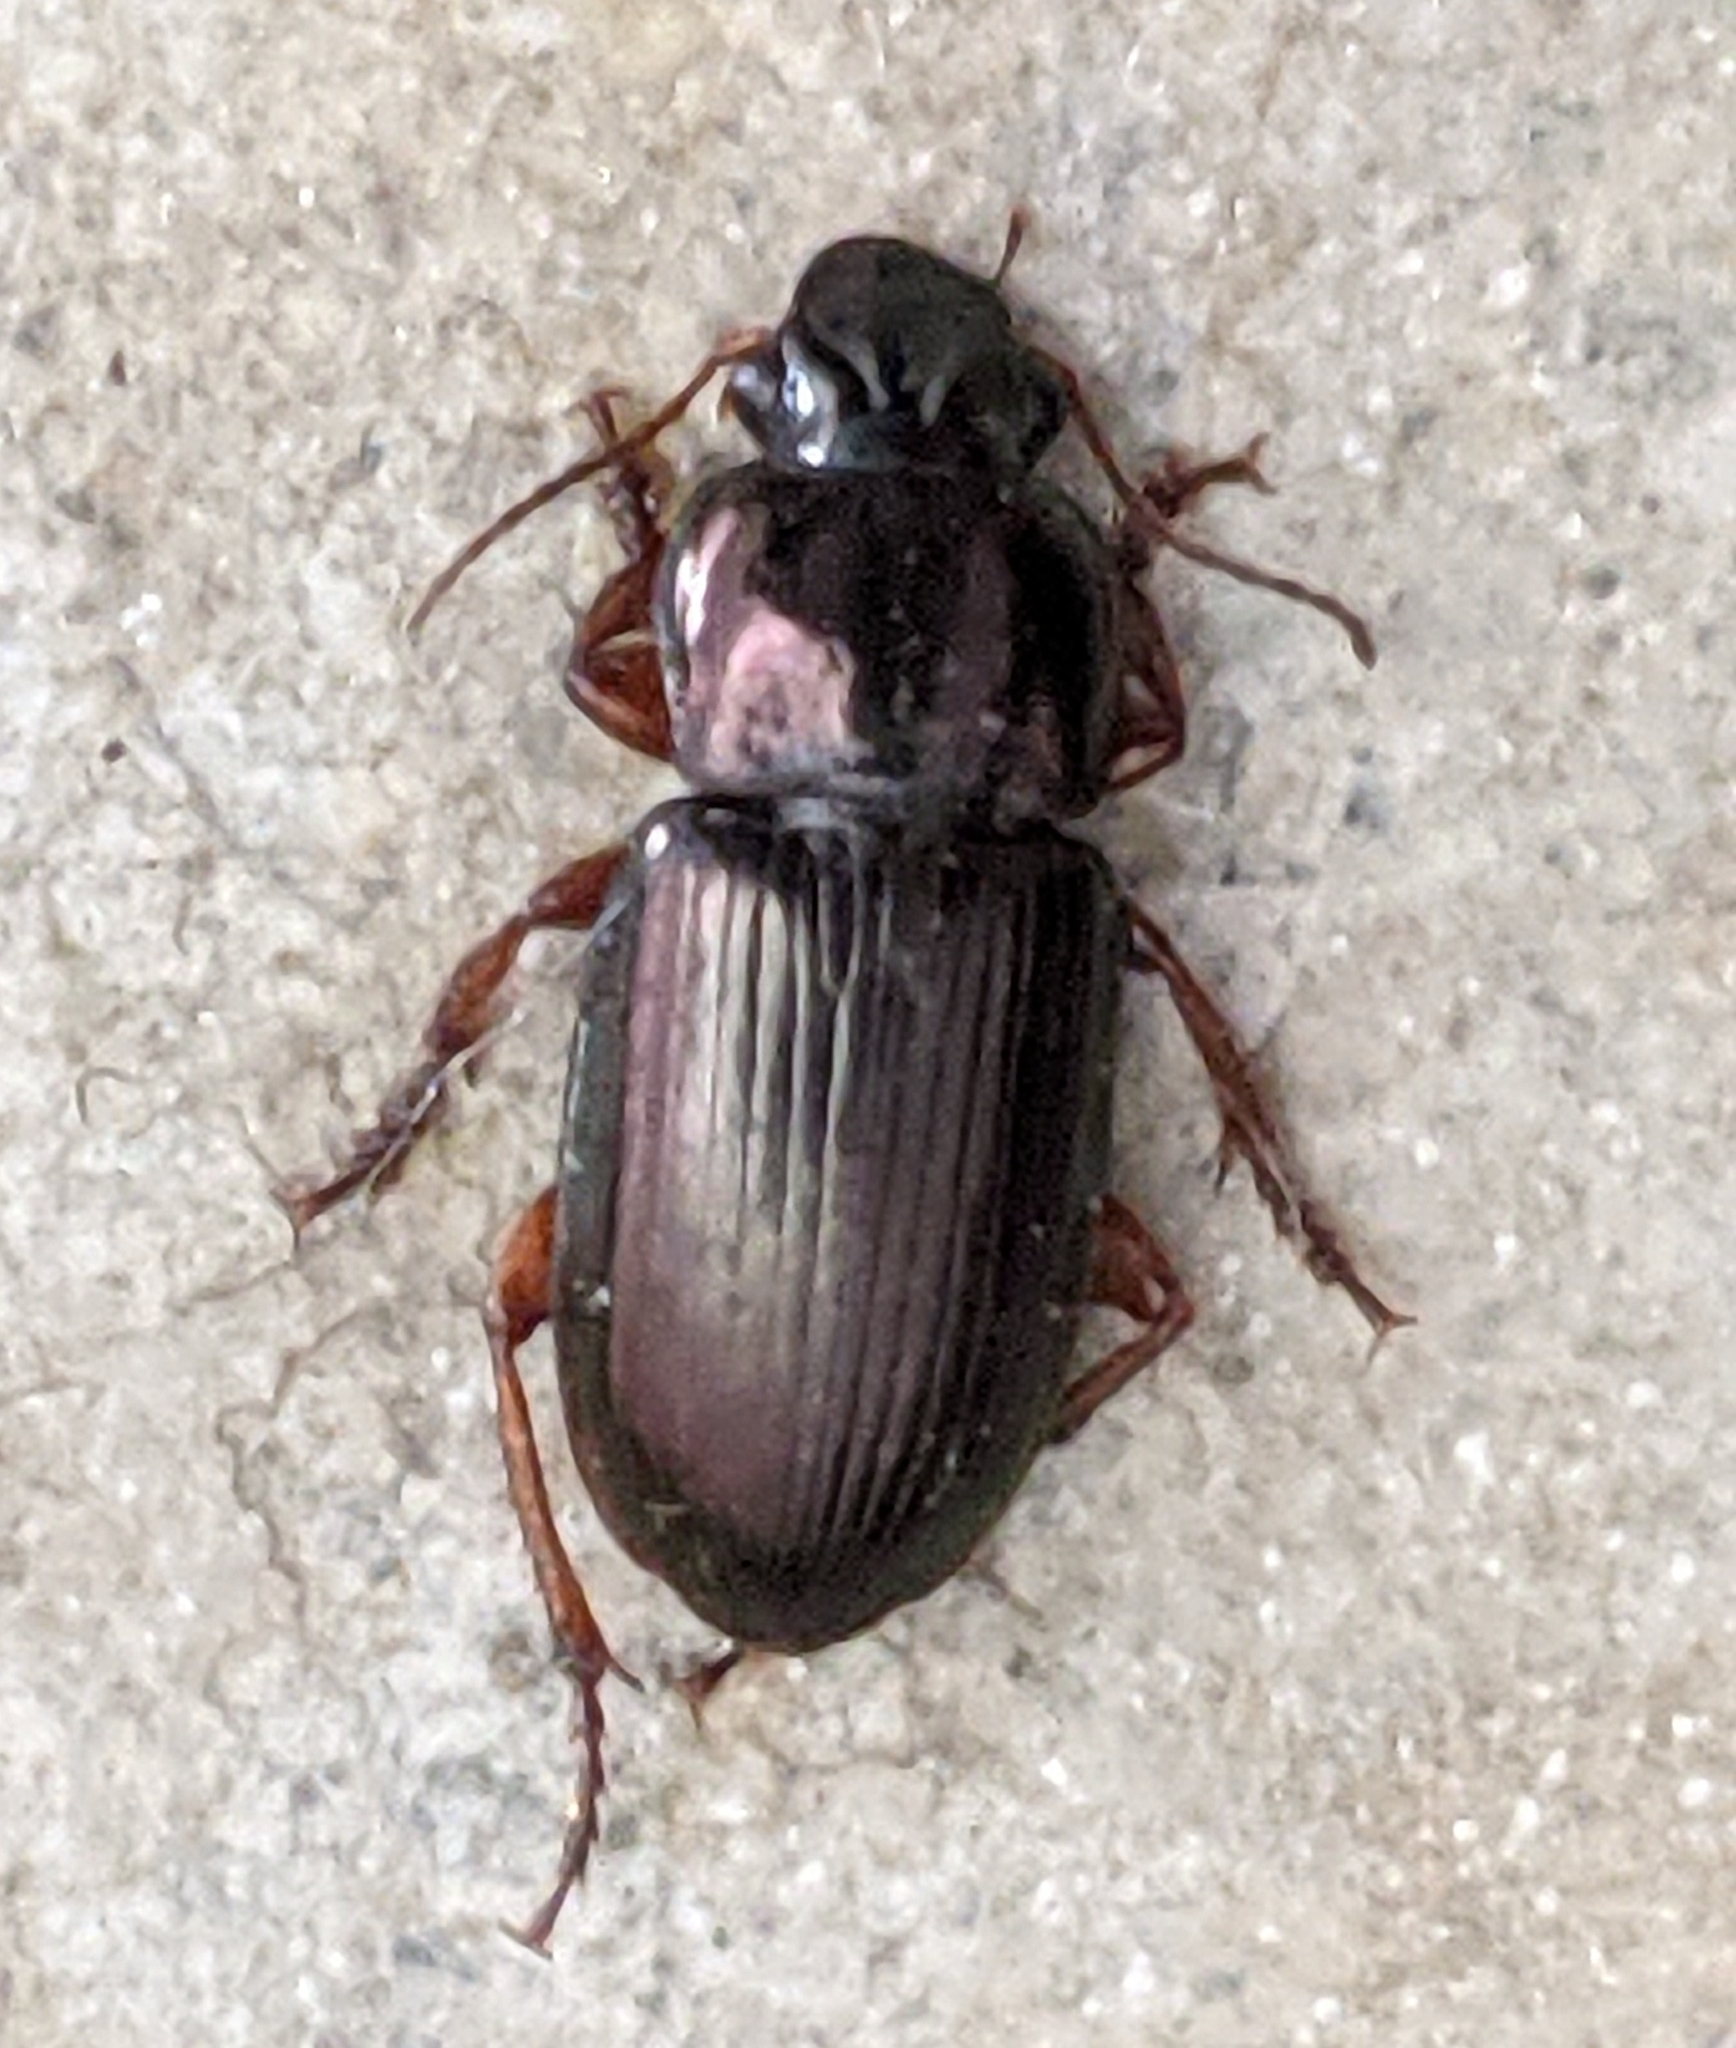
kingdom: Animalia
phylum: Arthropoda
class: Insecta
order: Coleoptera
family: Carabidae
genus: Harpalus
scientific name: Harpalus affinis
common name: Polychrome harp ground beetle
